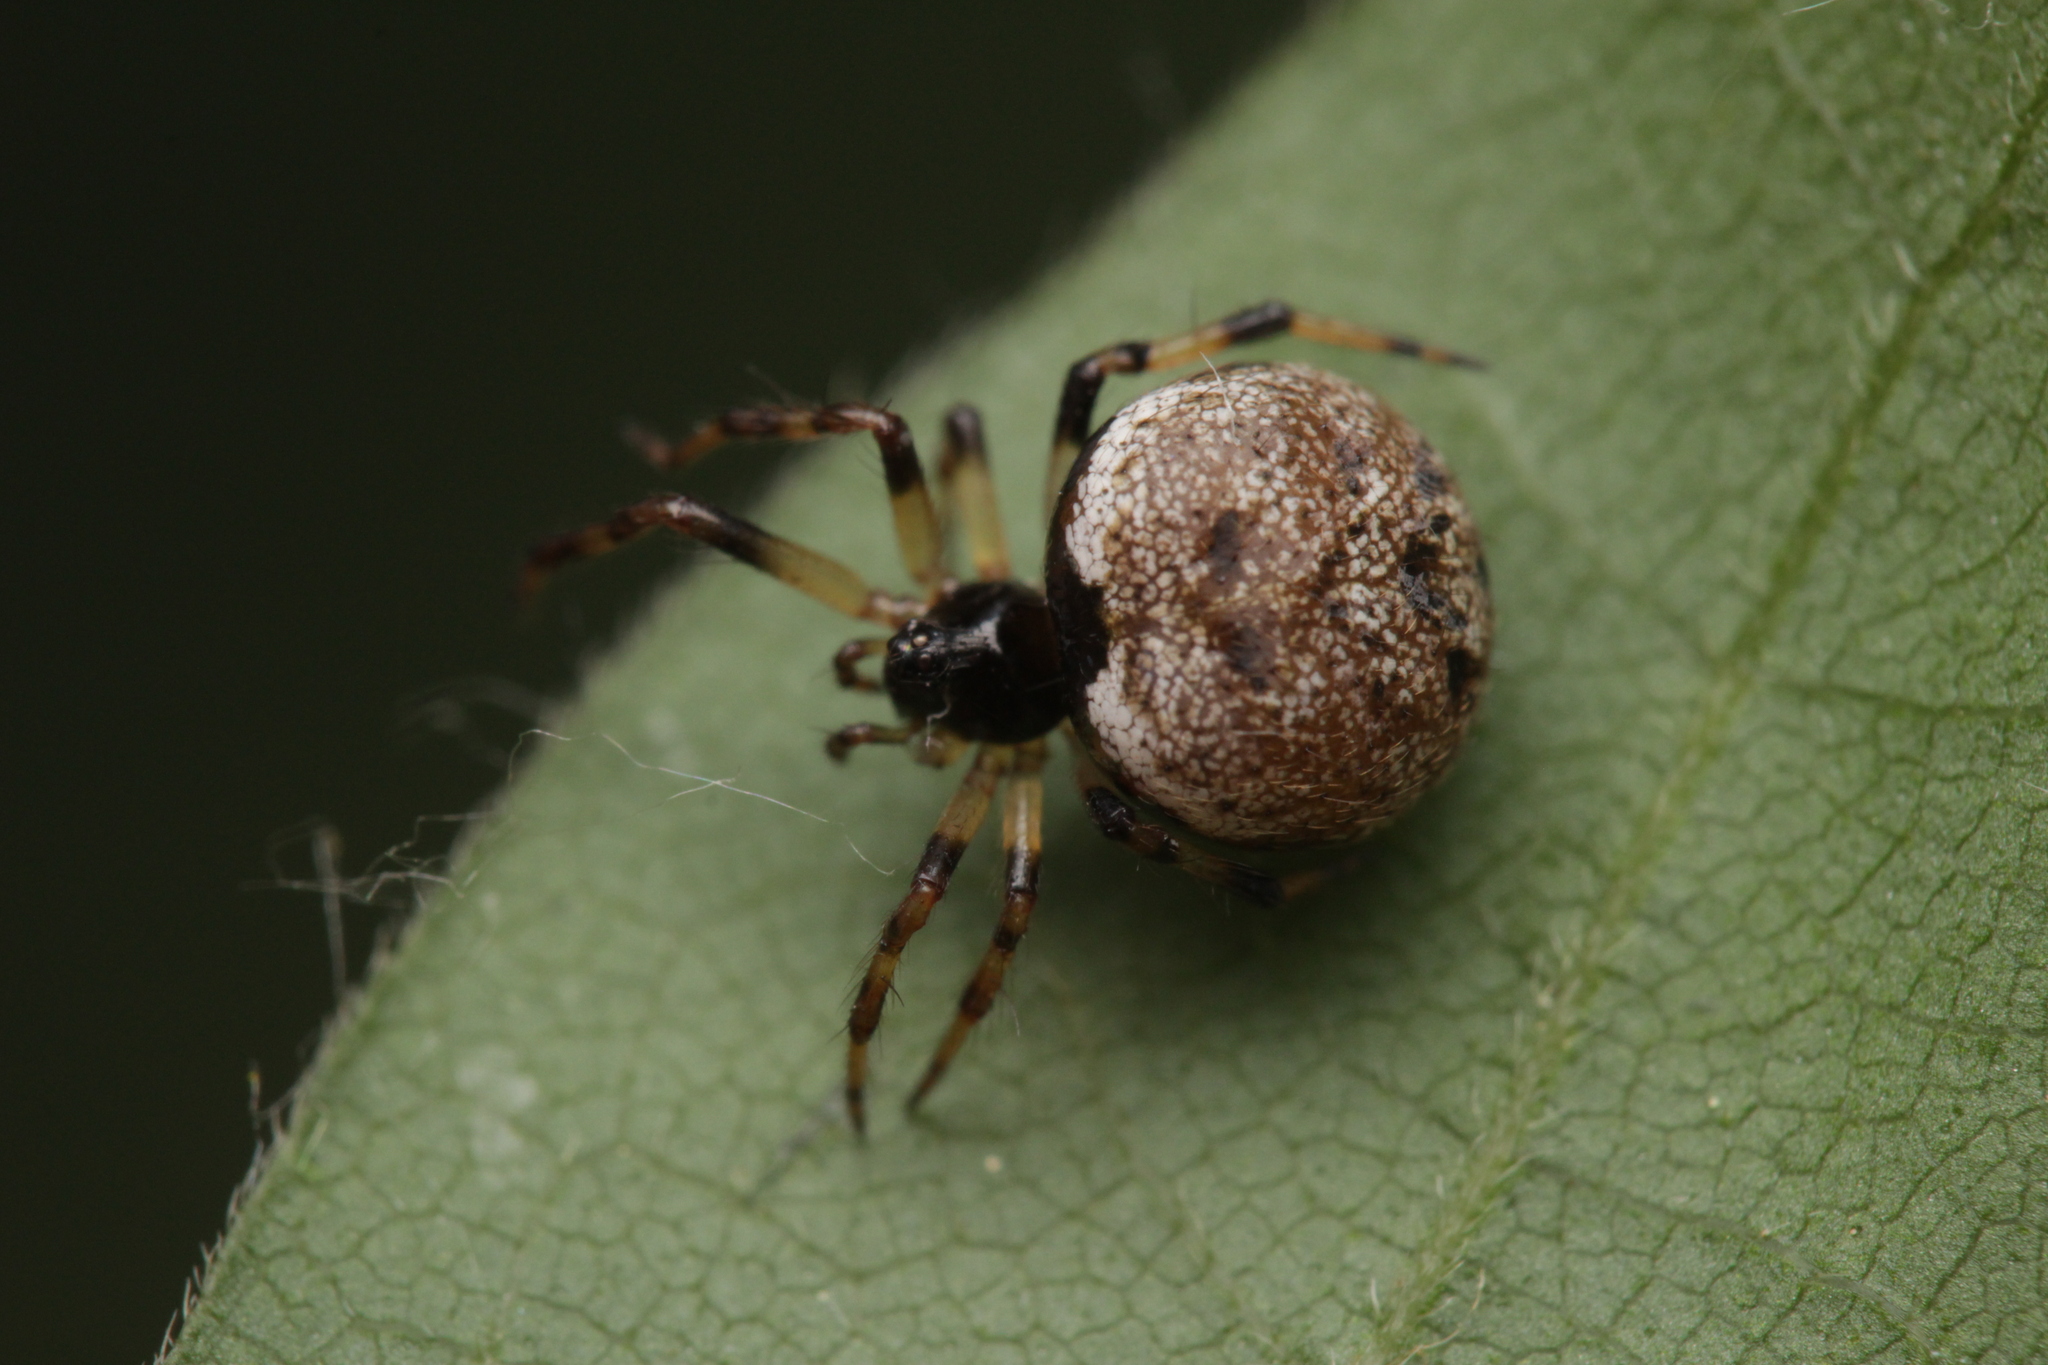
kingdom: Animalia
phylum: Arthropoda
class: Arachnida
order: Araneae
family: Theridiidae
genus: Dipoena
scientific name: Dipoena melanogaster
